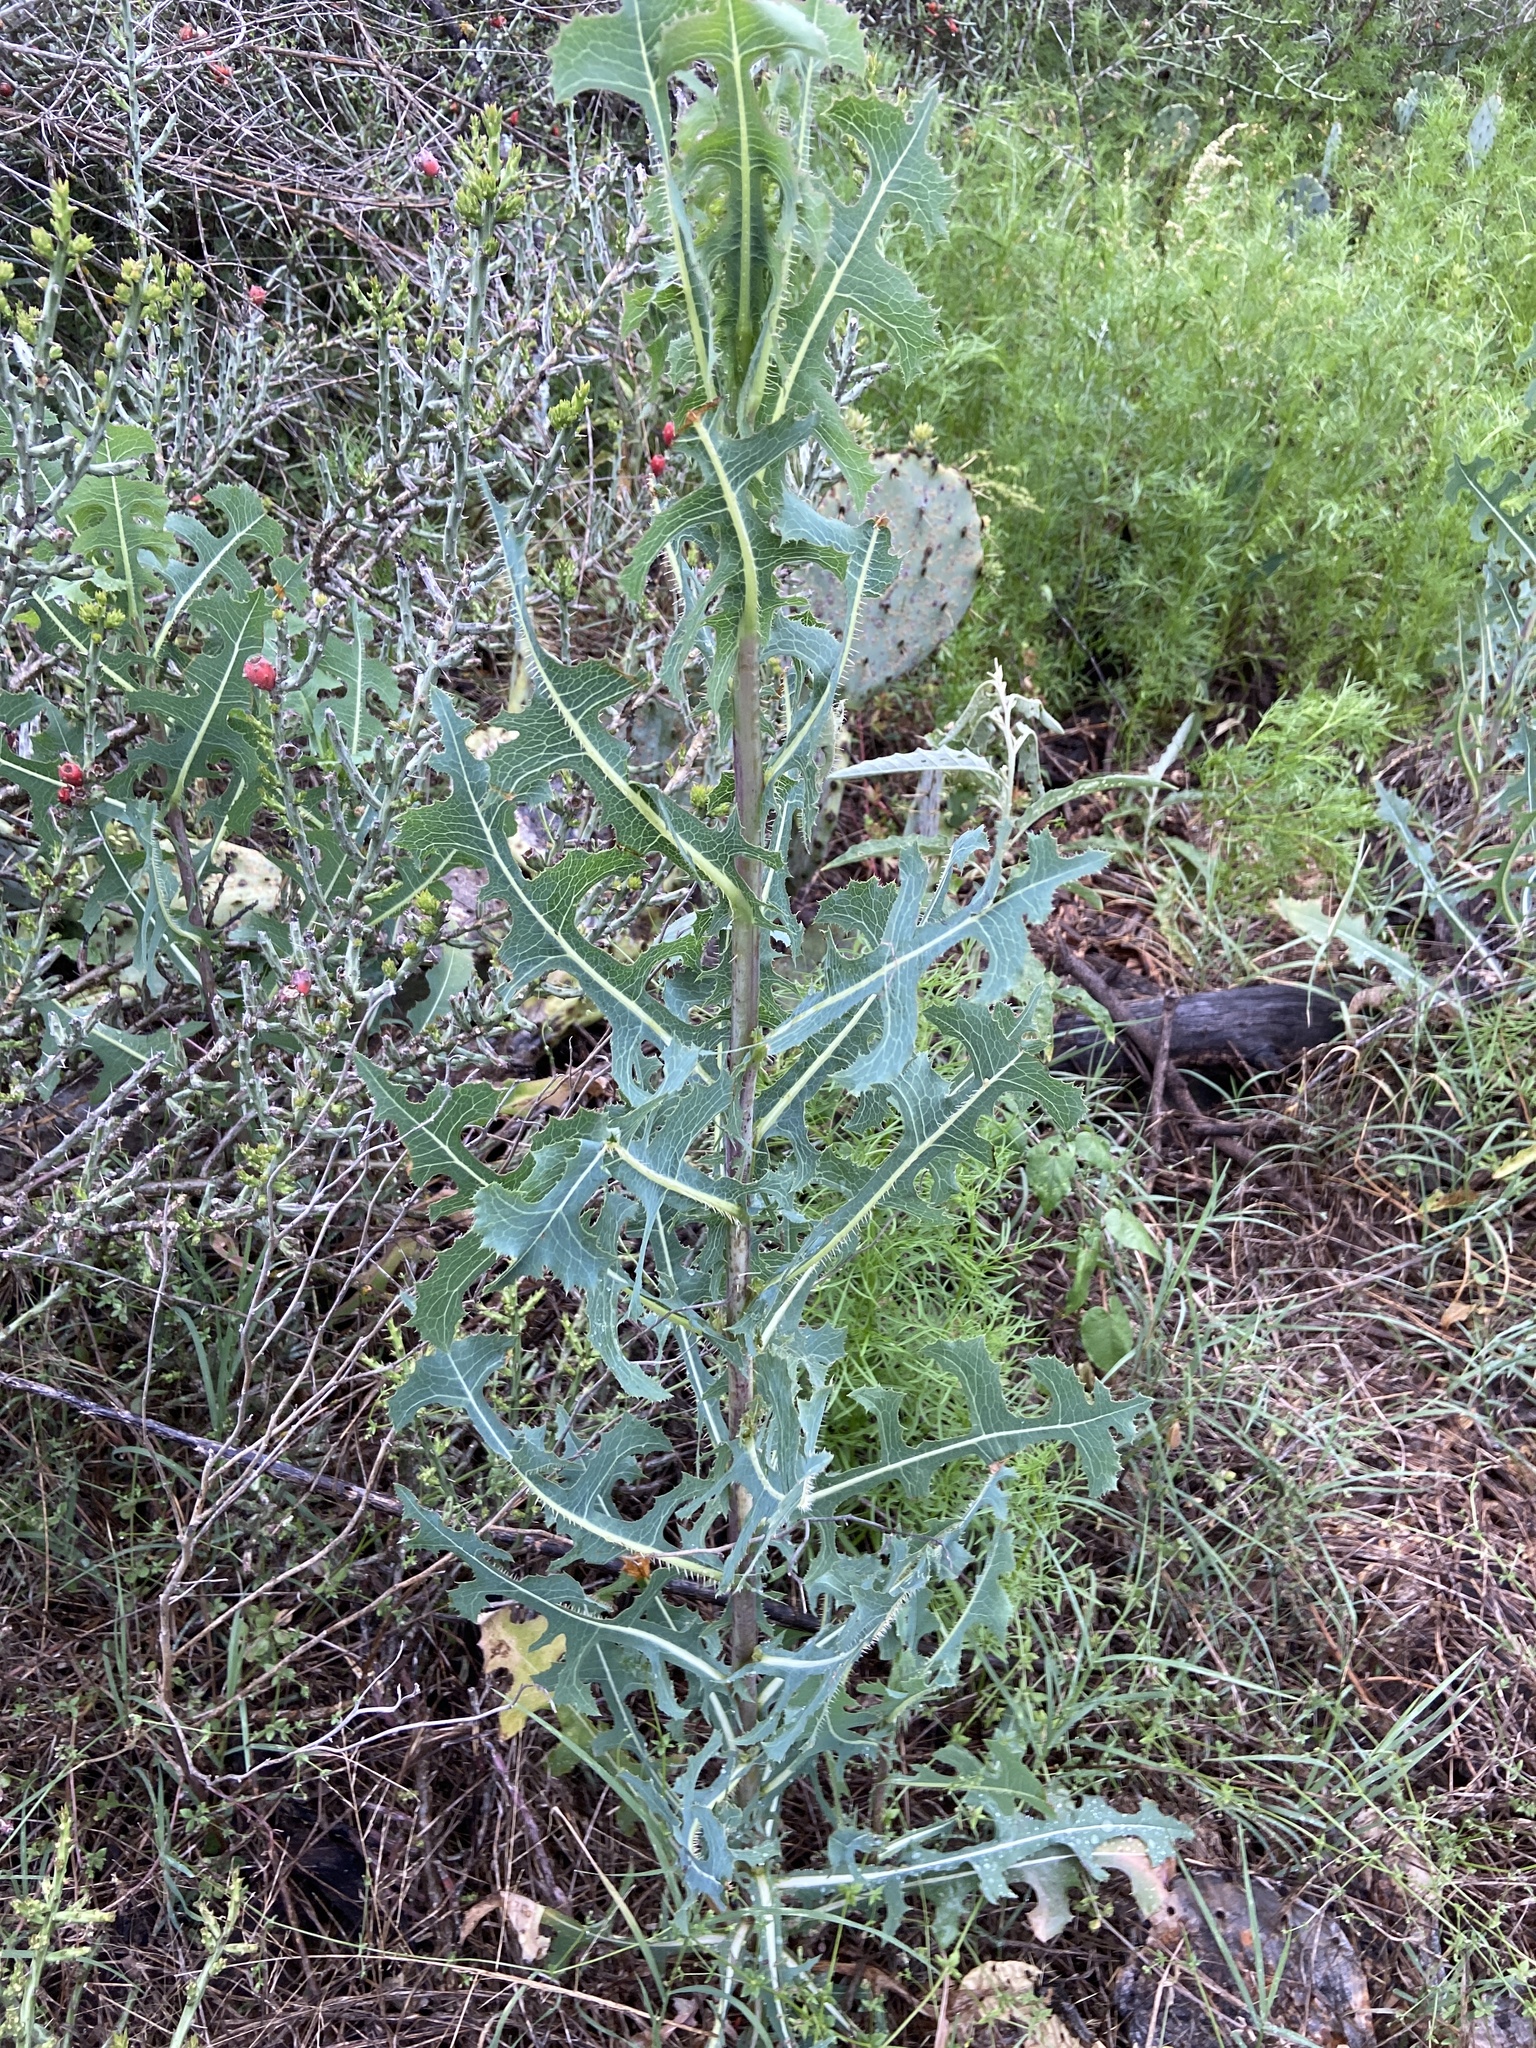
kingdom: Plantae
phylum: Tracheophyta
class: Magnoliopsida
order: Asterales
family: Asteraceae
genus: Lactuca
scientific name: Lactuca serriola
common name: Prickly lettuce
